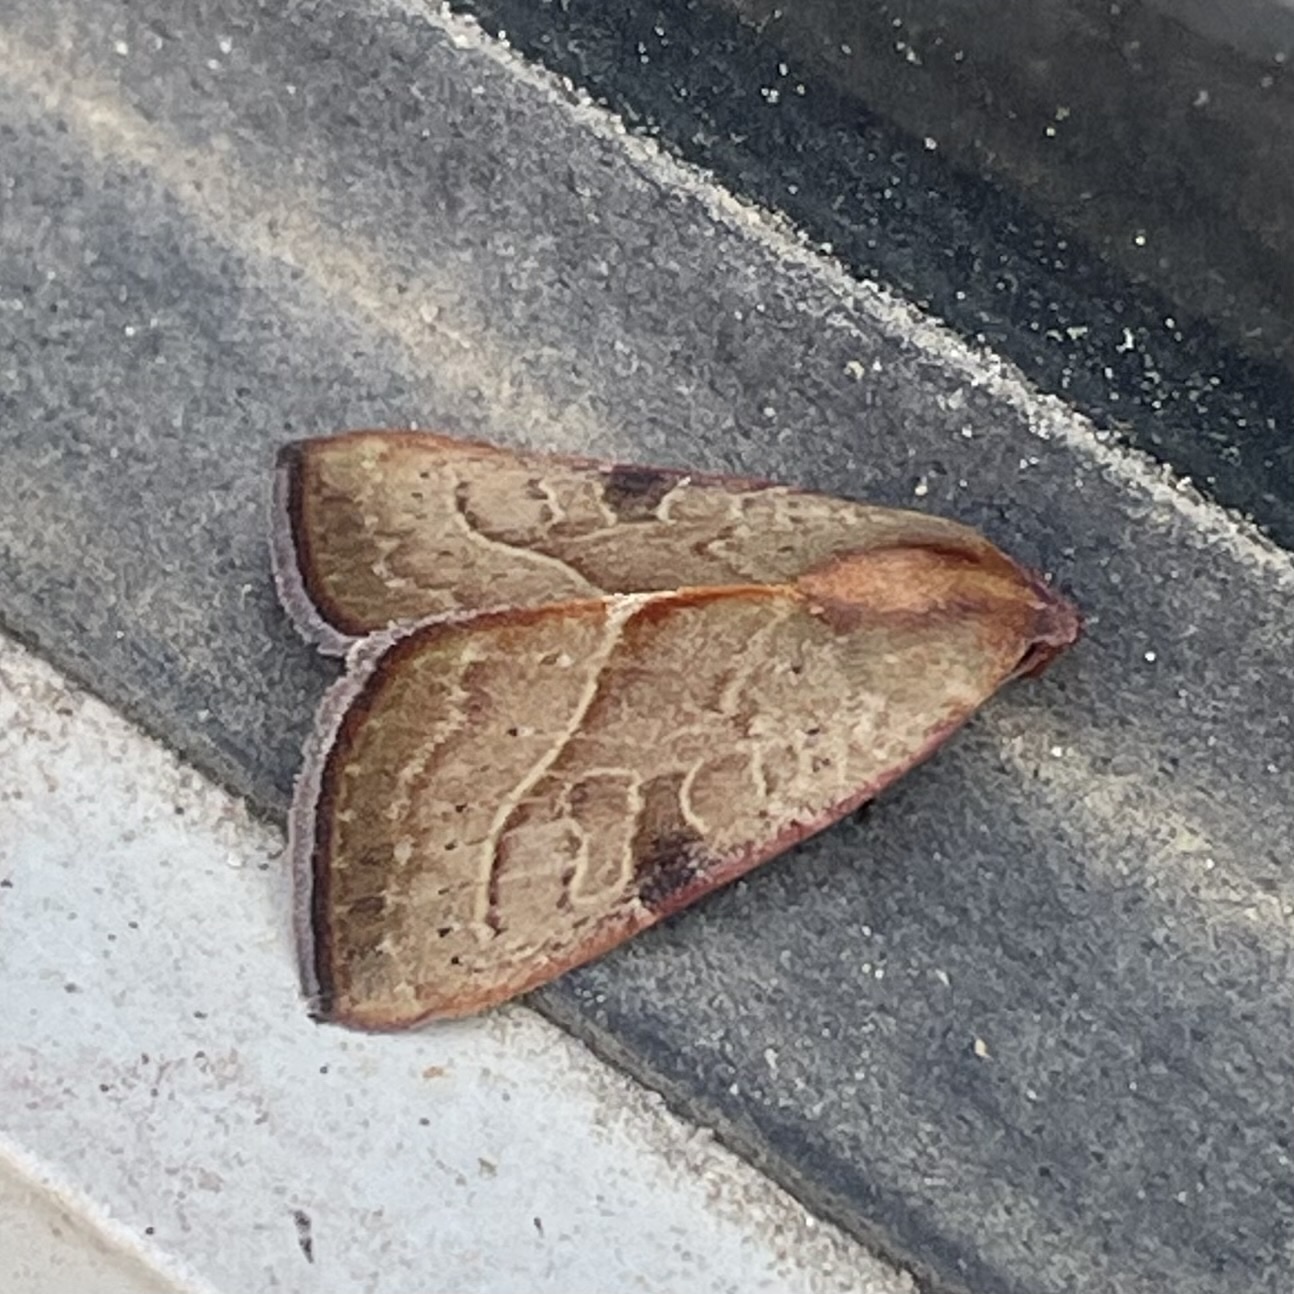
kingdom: Animalia
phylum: Arthropoda
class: Insecta
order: Lepidoptera
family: Noctuidae
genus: Galgula
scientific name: Galgula partita
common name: Wedgeling
